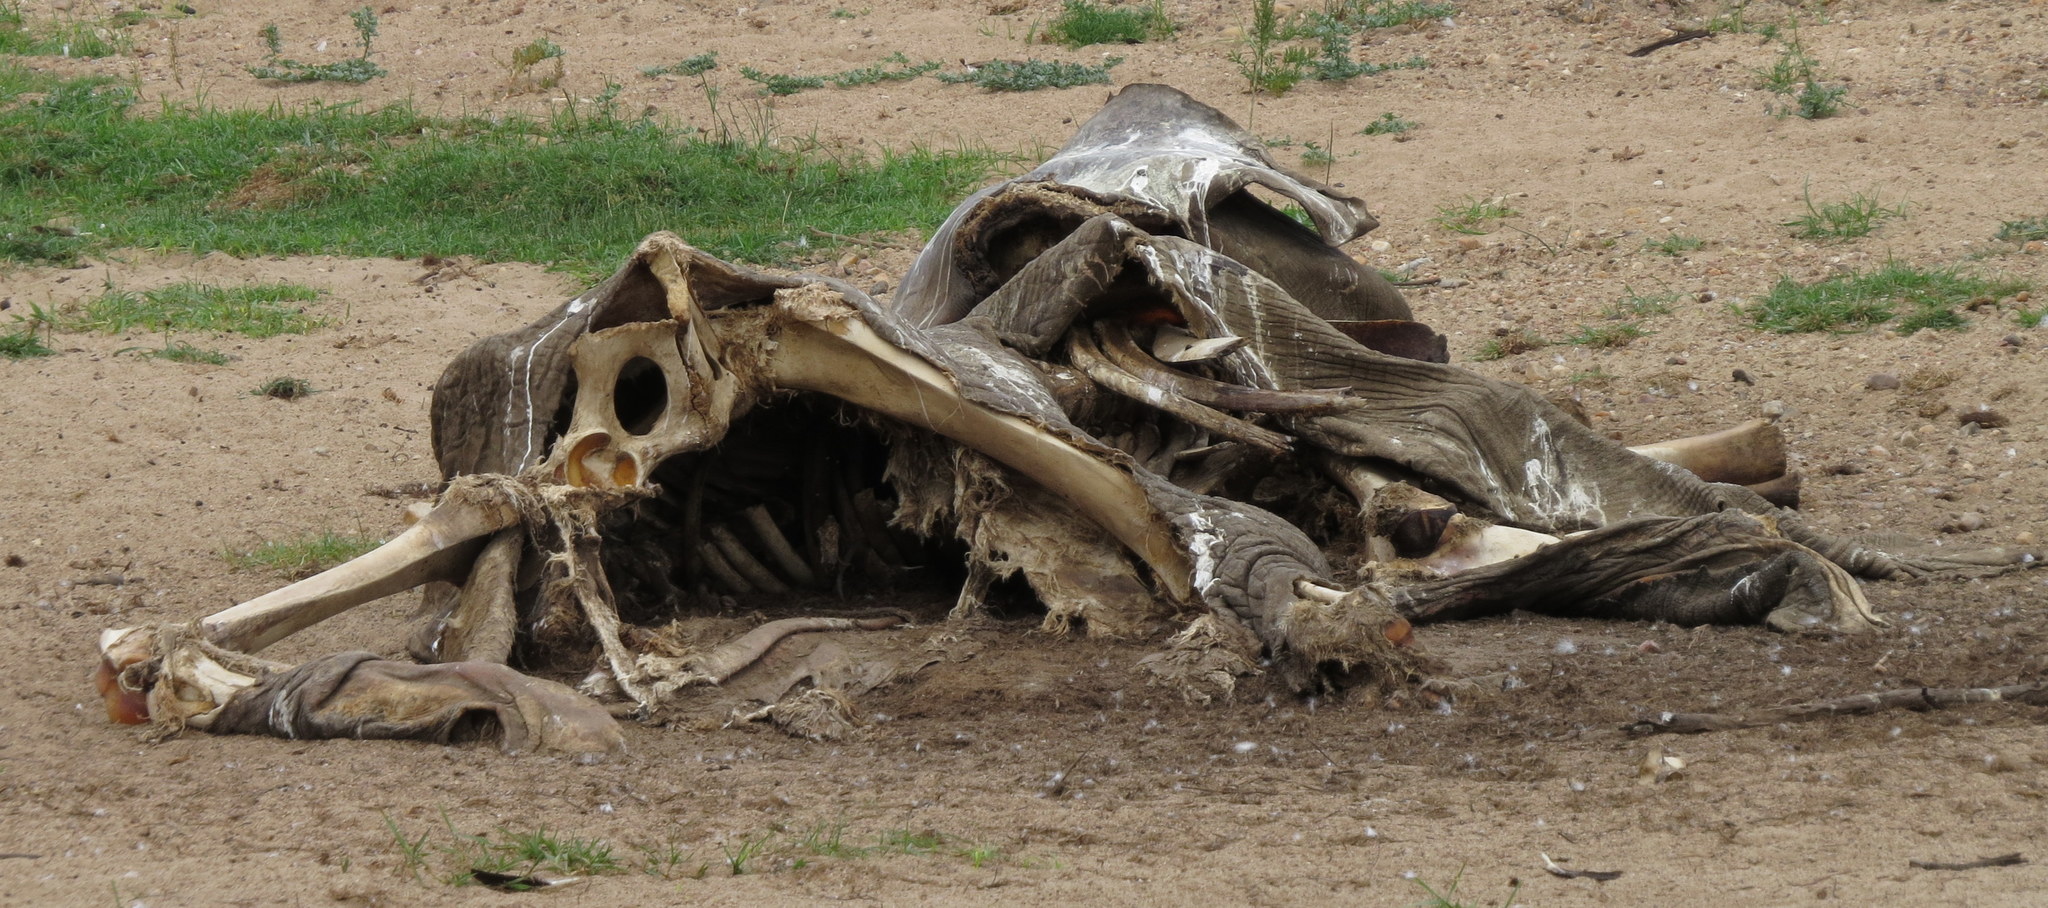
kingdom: Animalia
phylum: Chordata
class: Mammalia
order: Proboscidea
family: Elephantidae
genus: Loxodonta
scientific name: Loxodonta africana
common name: African elephant
